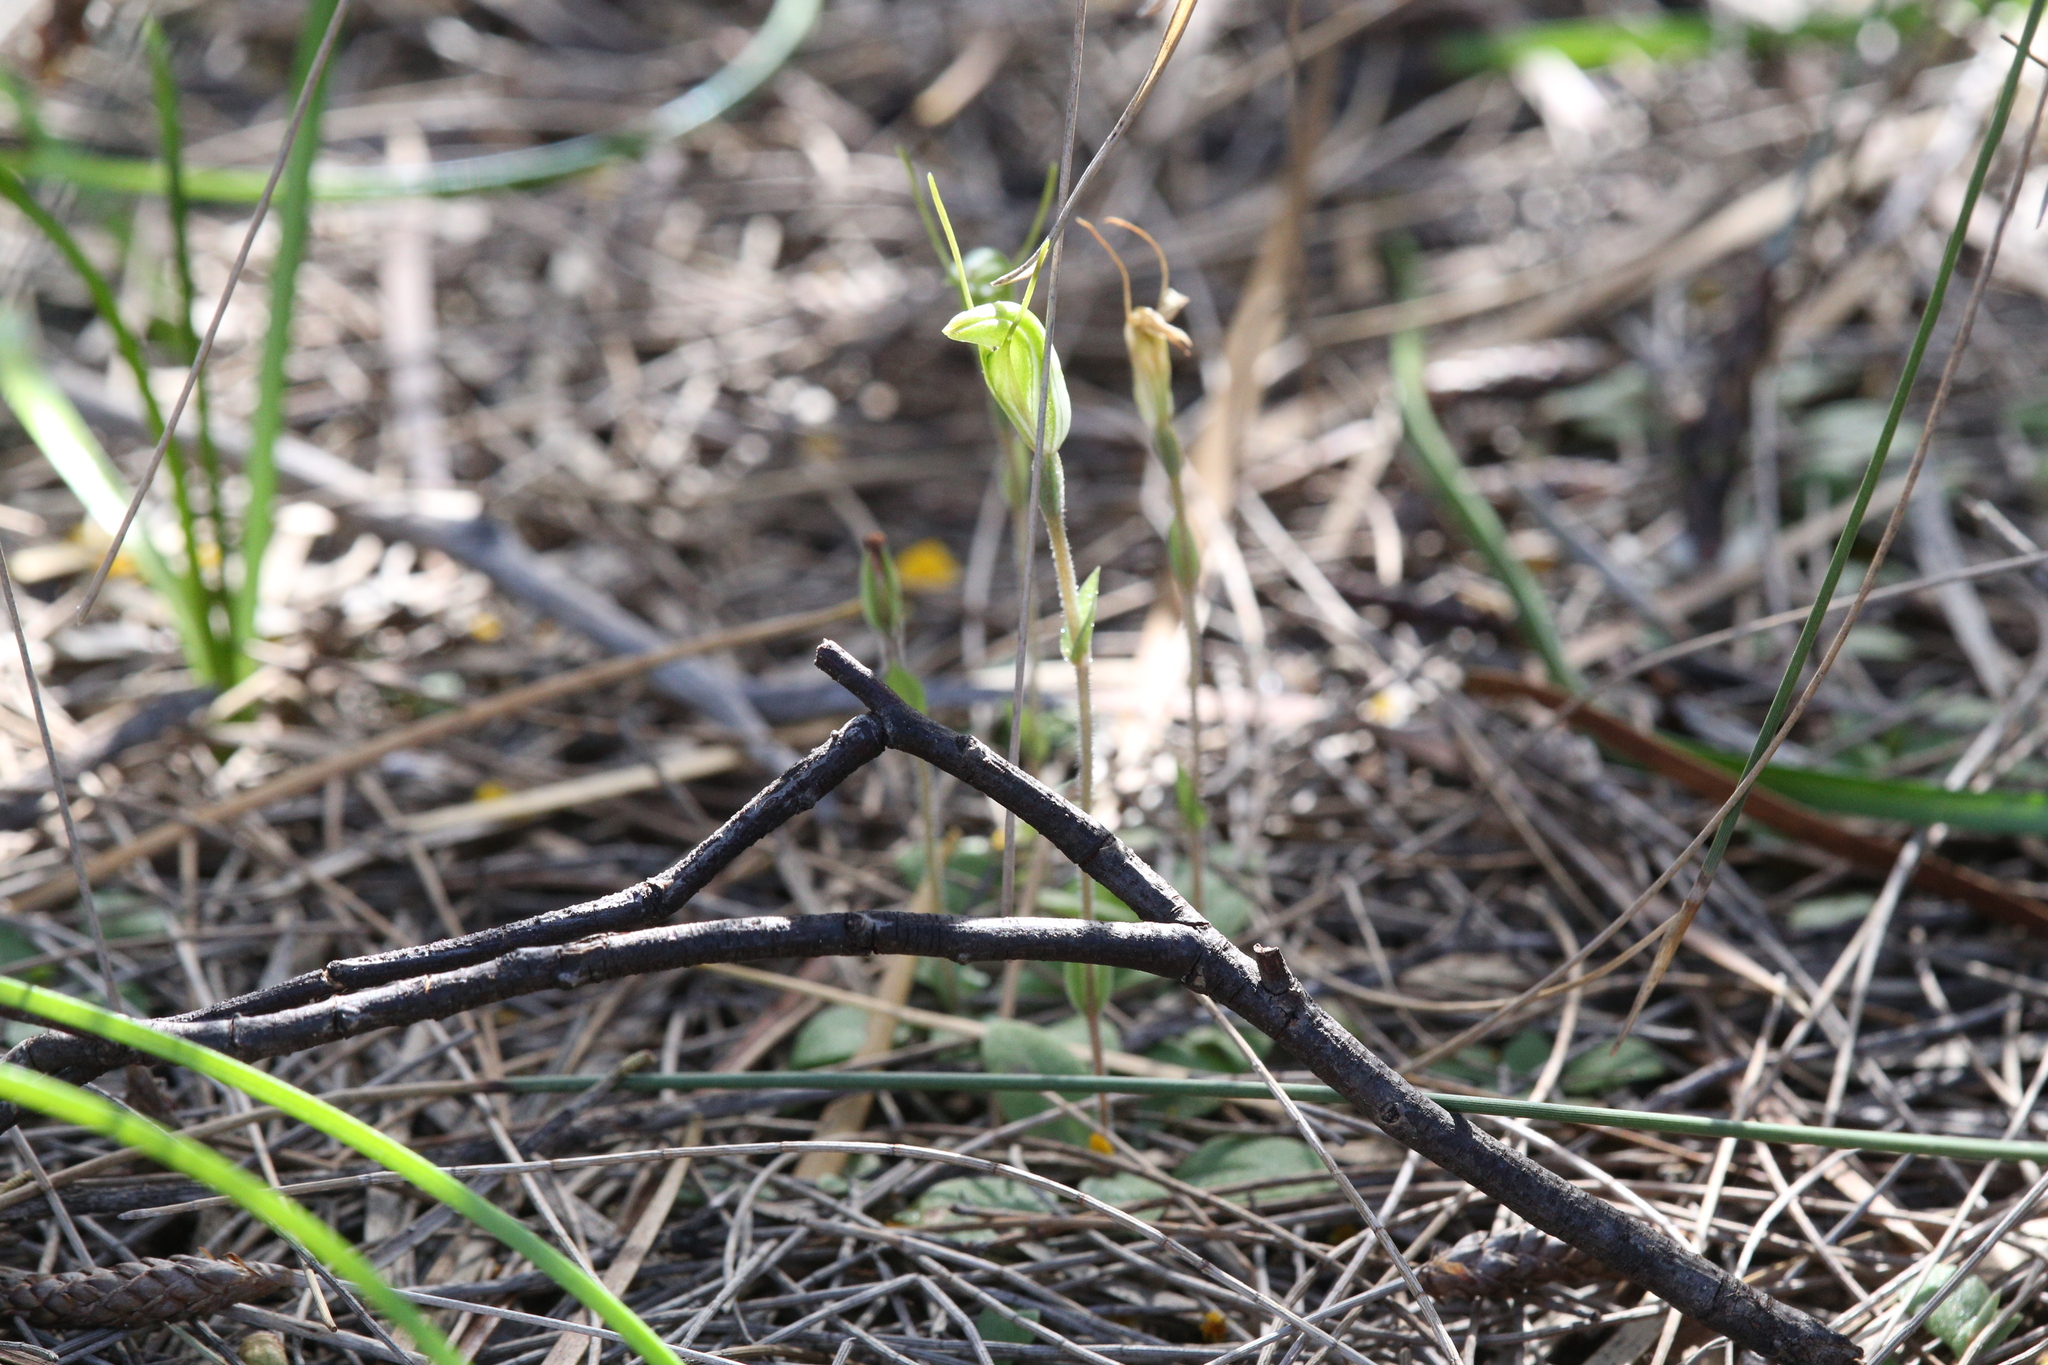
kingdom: Plantae
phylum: Tracheophyta
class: Liliopsida
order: Asparagales
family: Orchidaceae
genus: Pterostylis
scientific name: Pterostylis setulosa
